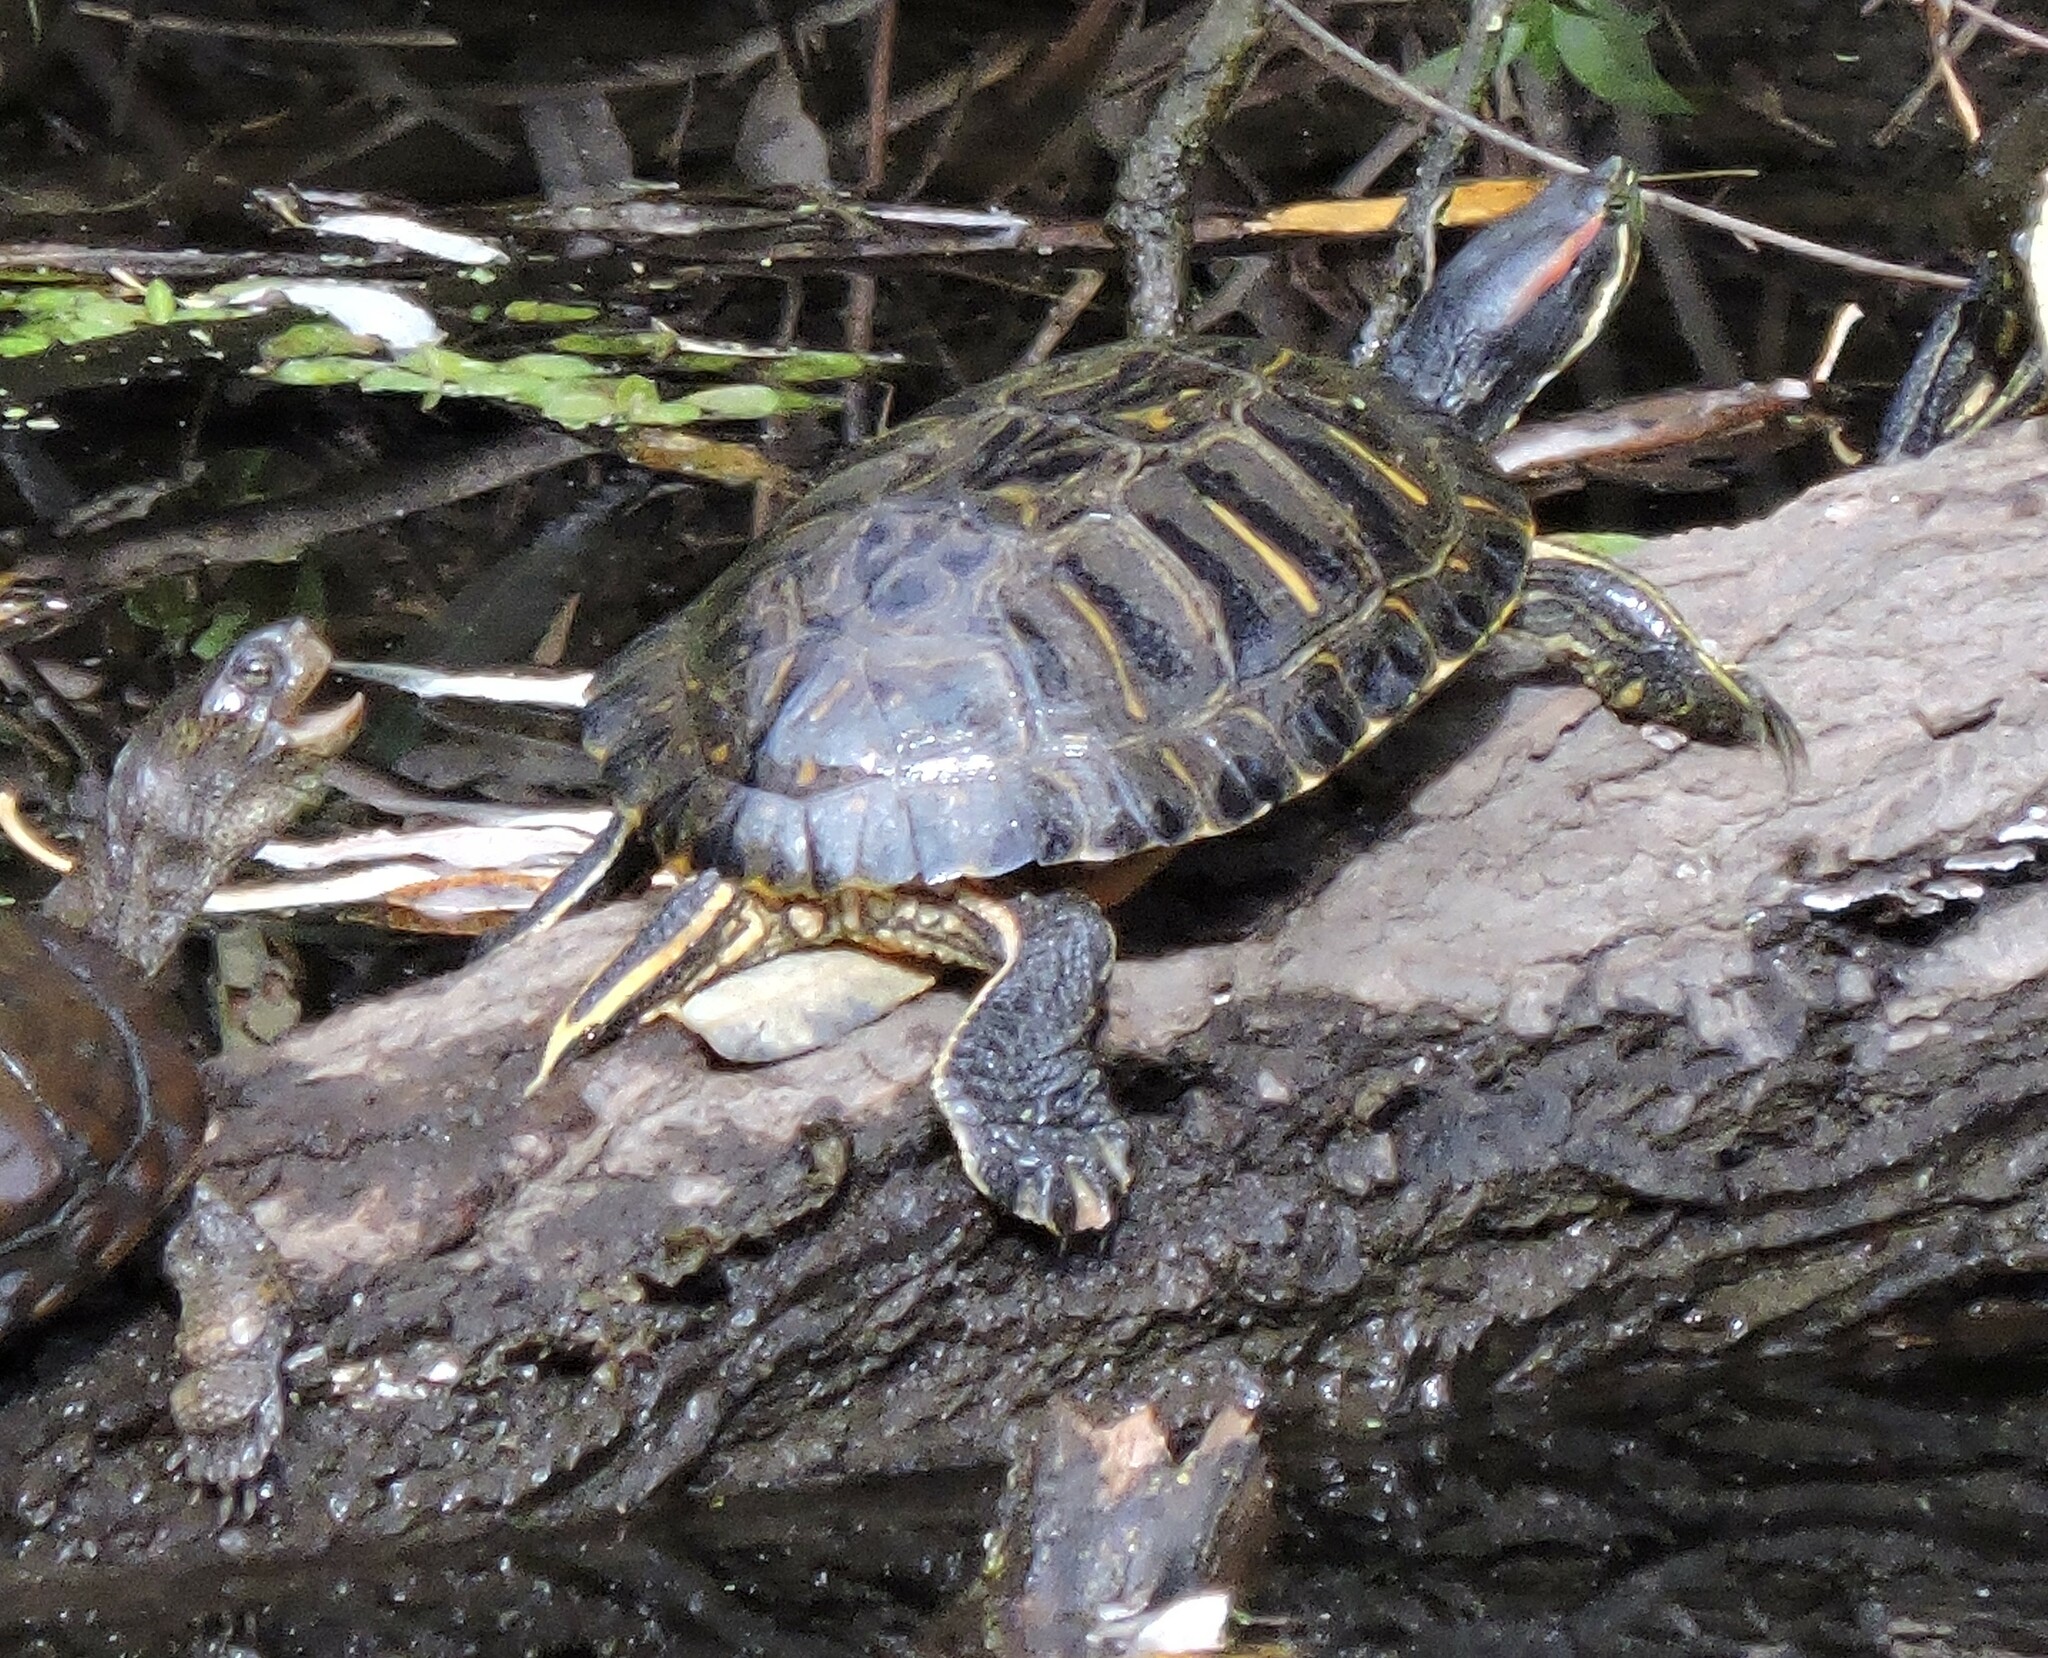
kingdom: Animalia
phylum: Chordata
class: Testudines
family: Emydidae
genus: Trachemys
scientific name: Trachemys scripta
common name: Slider
